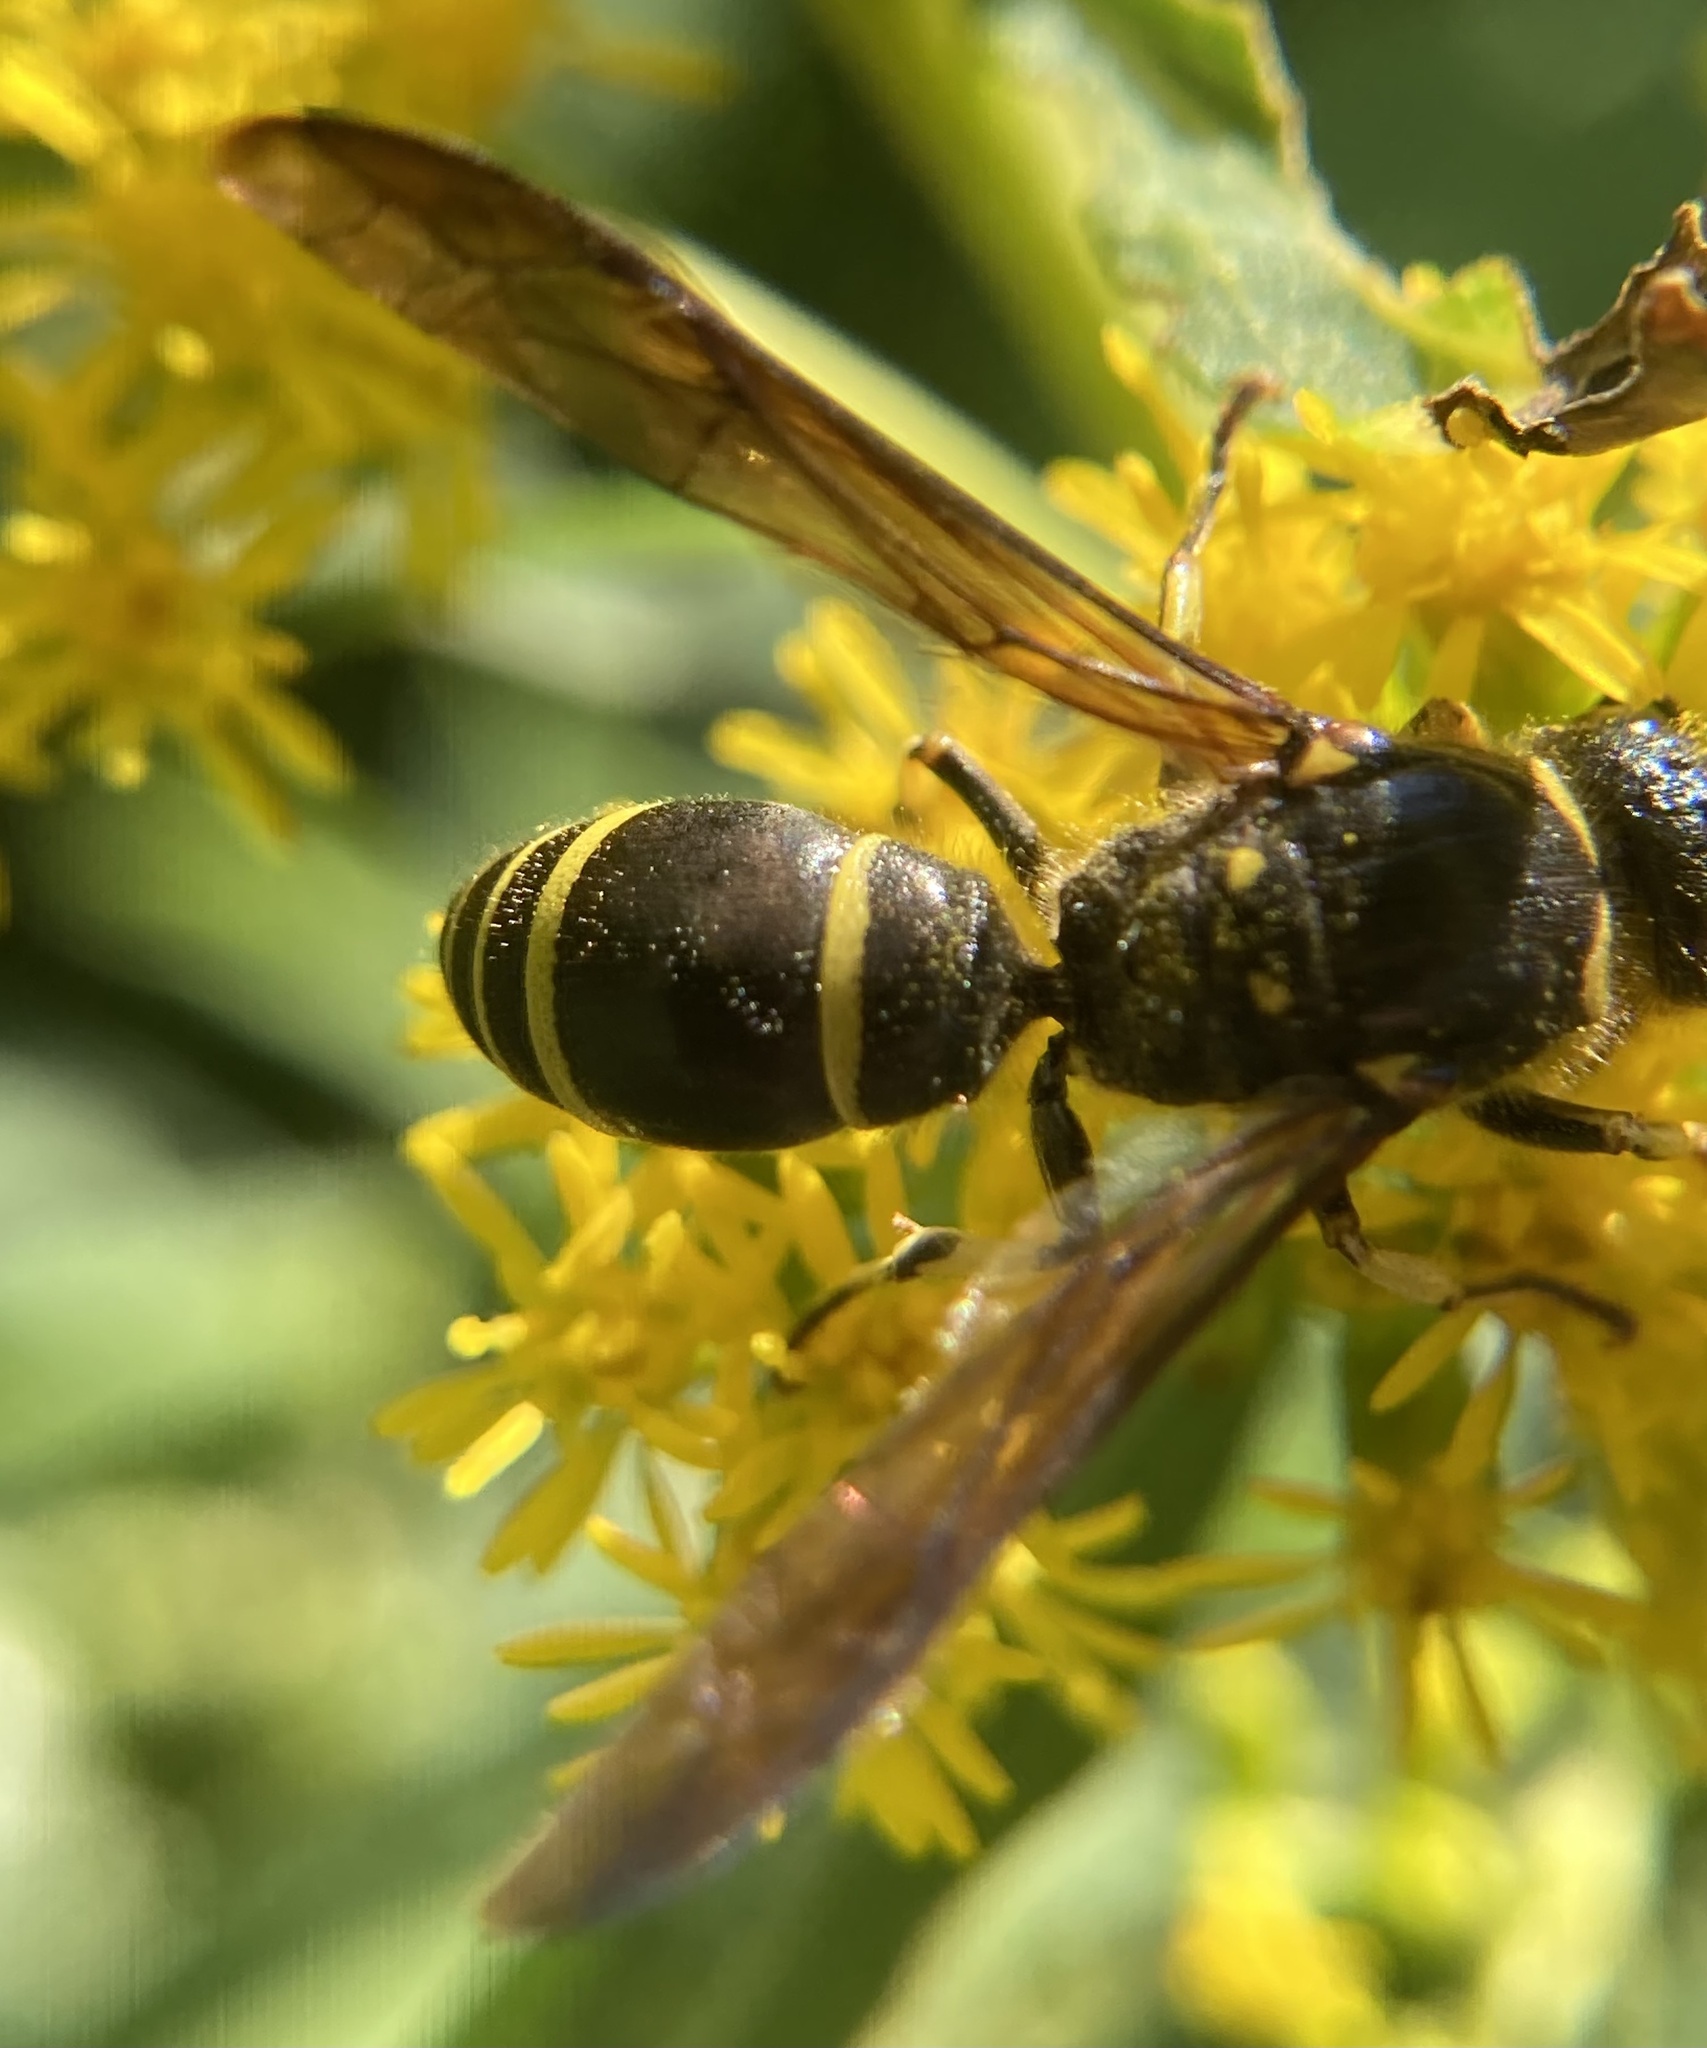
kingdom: Animalia
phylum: Arthropoda
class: Insecta
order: Hymenoptera
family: Vespidae
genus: Ancistrocerus
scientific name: Ancistrocerus
